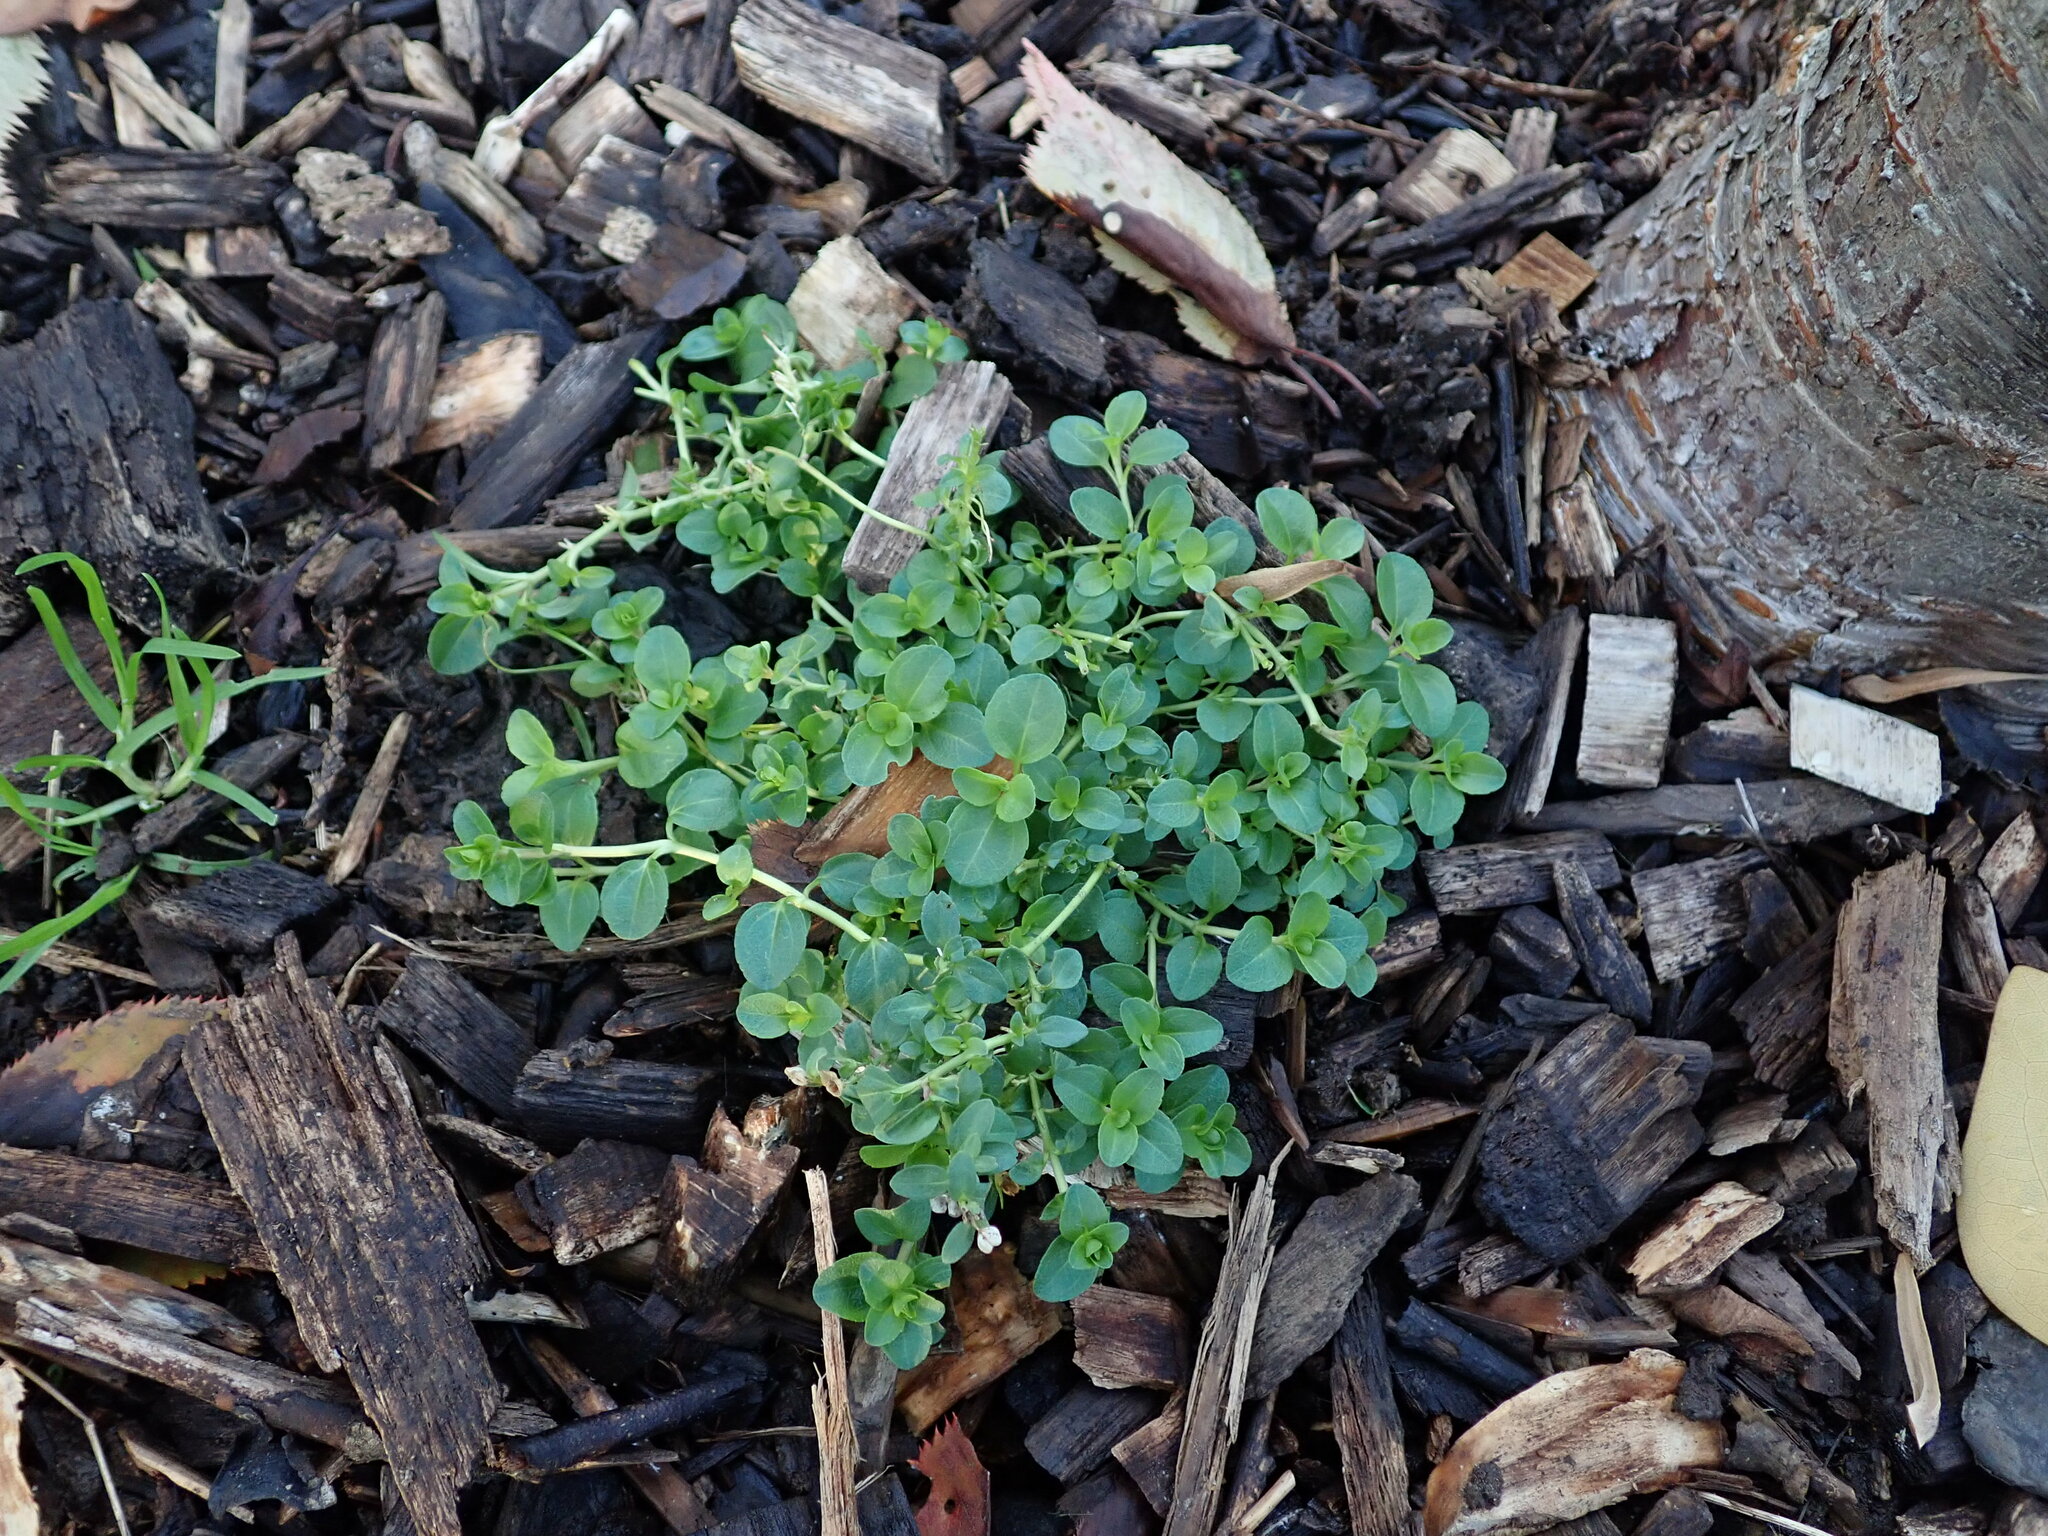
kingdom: Plantae
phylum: Tracheophyta
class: Magnoliopsida
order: Lamiales
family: Plantaginaceae
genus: Veronica
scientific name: Veronica serpyllifolia
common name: Thyme-leaved speedwell
